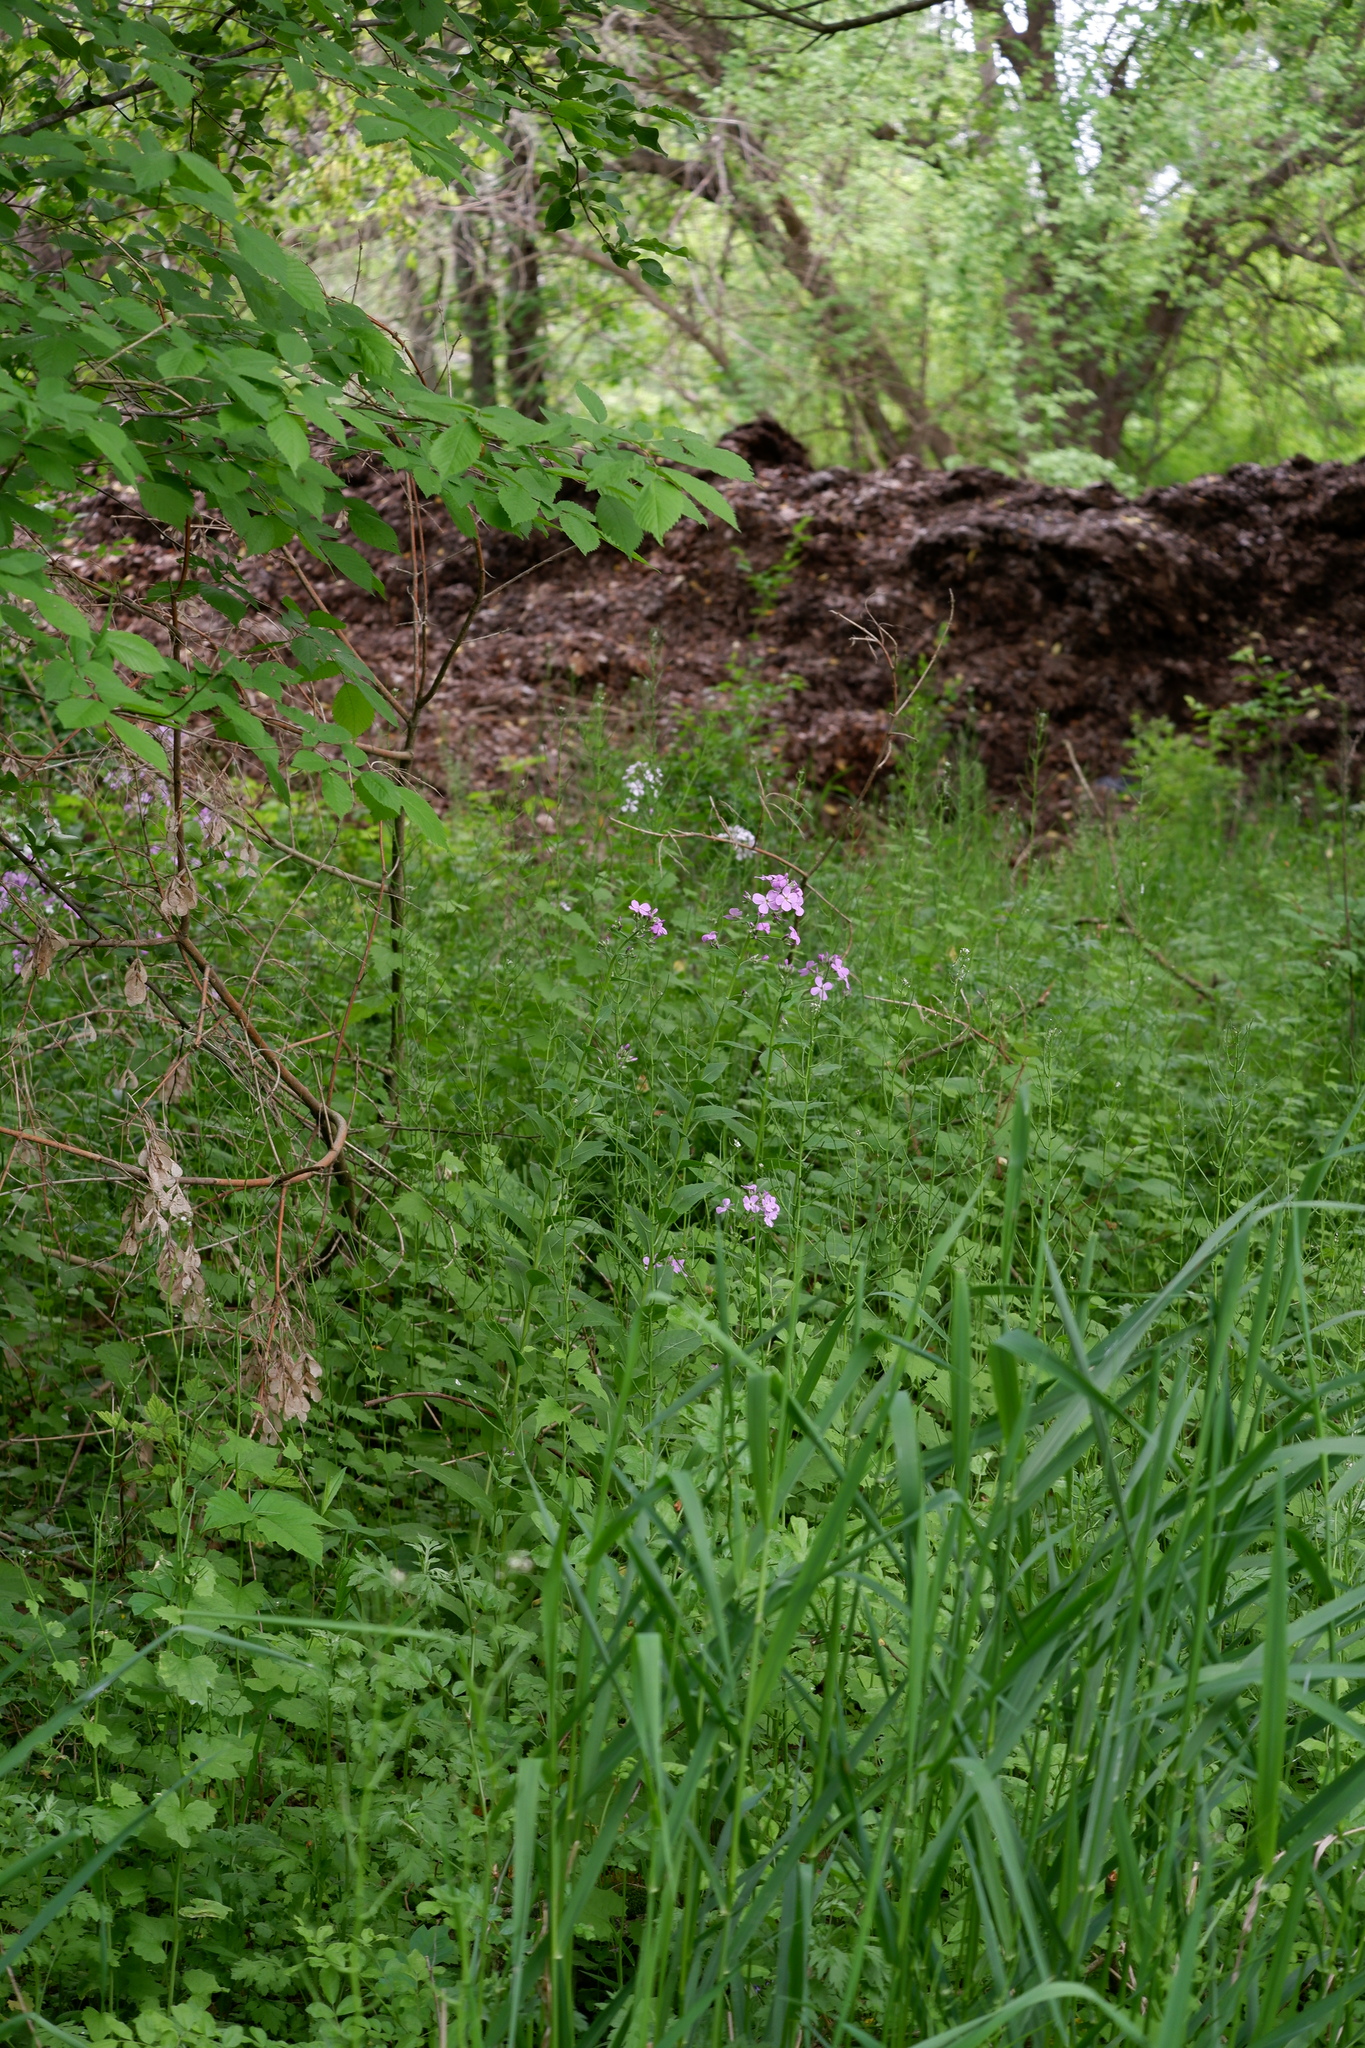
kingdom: Plantae
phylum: Tracheophyta
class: Magnoliopsida
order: Brassicales
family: Brassicaceae
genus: Hesperis
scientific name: Hesperis matronalis
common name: Dame's-violet
